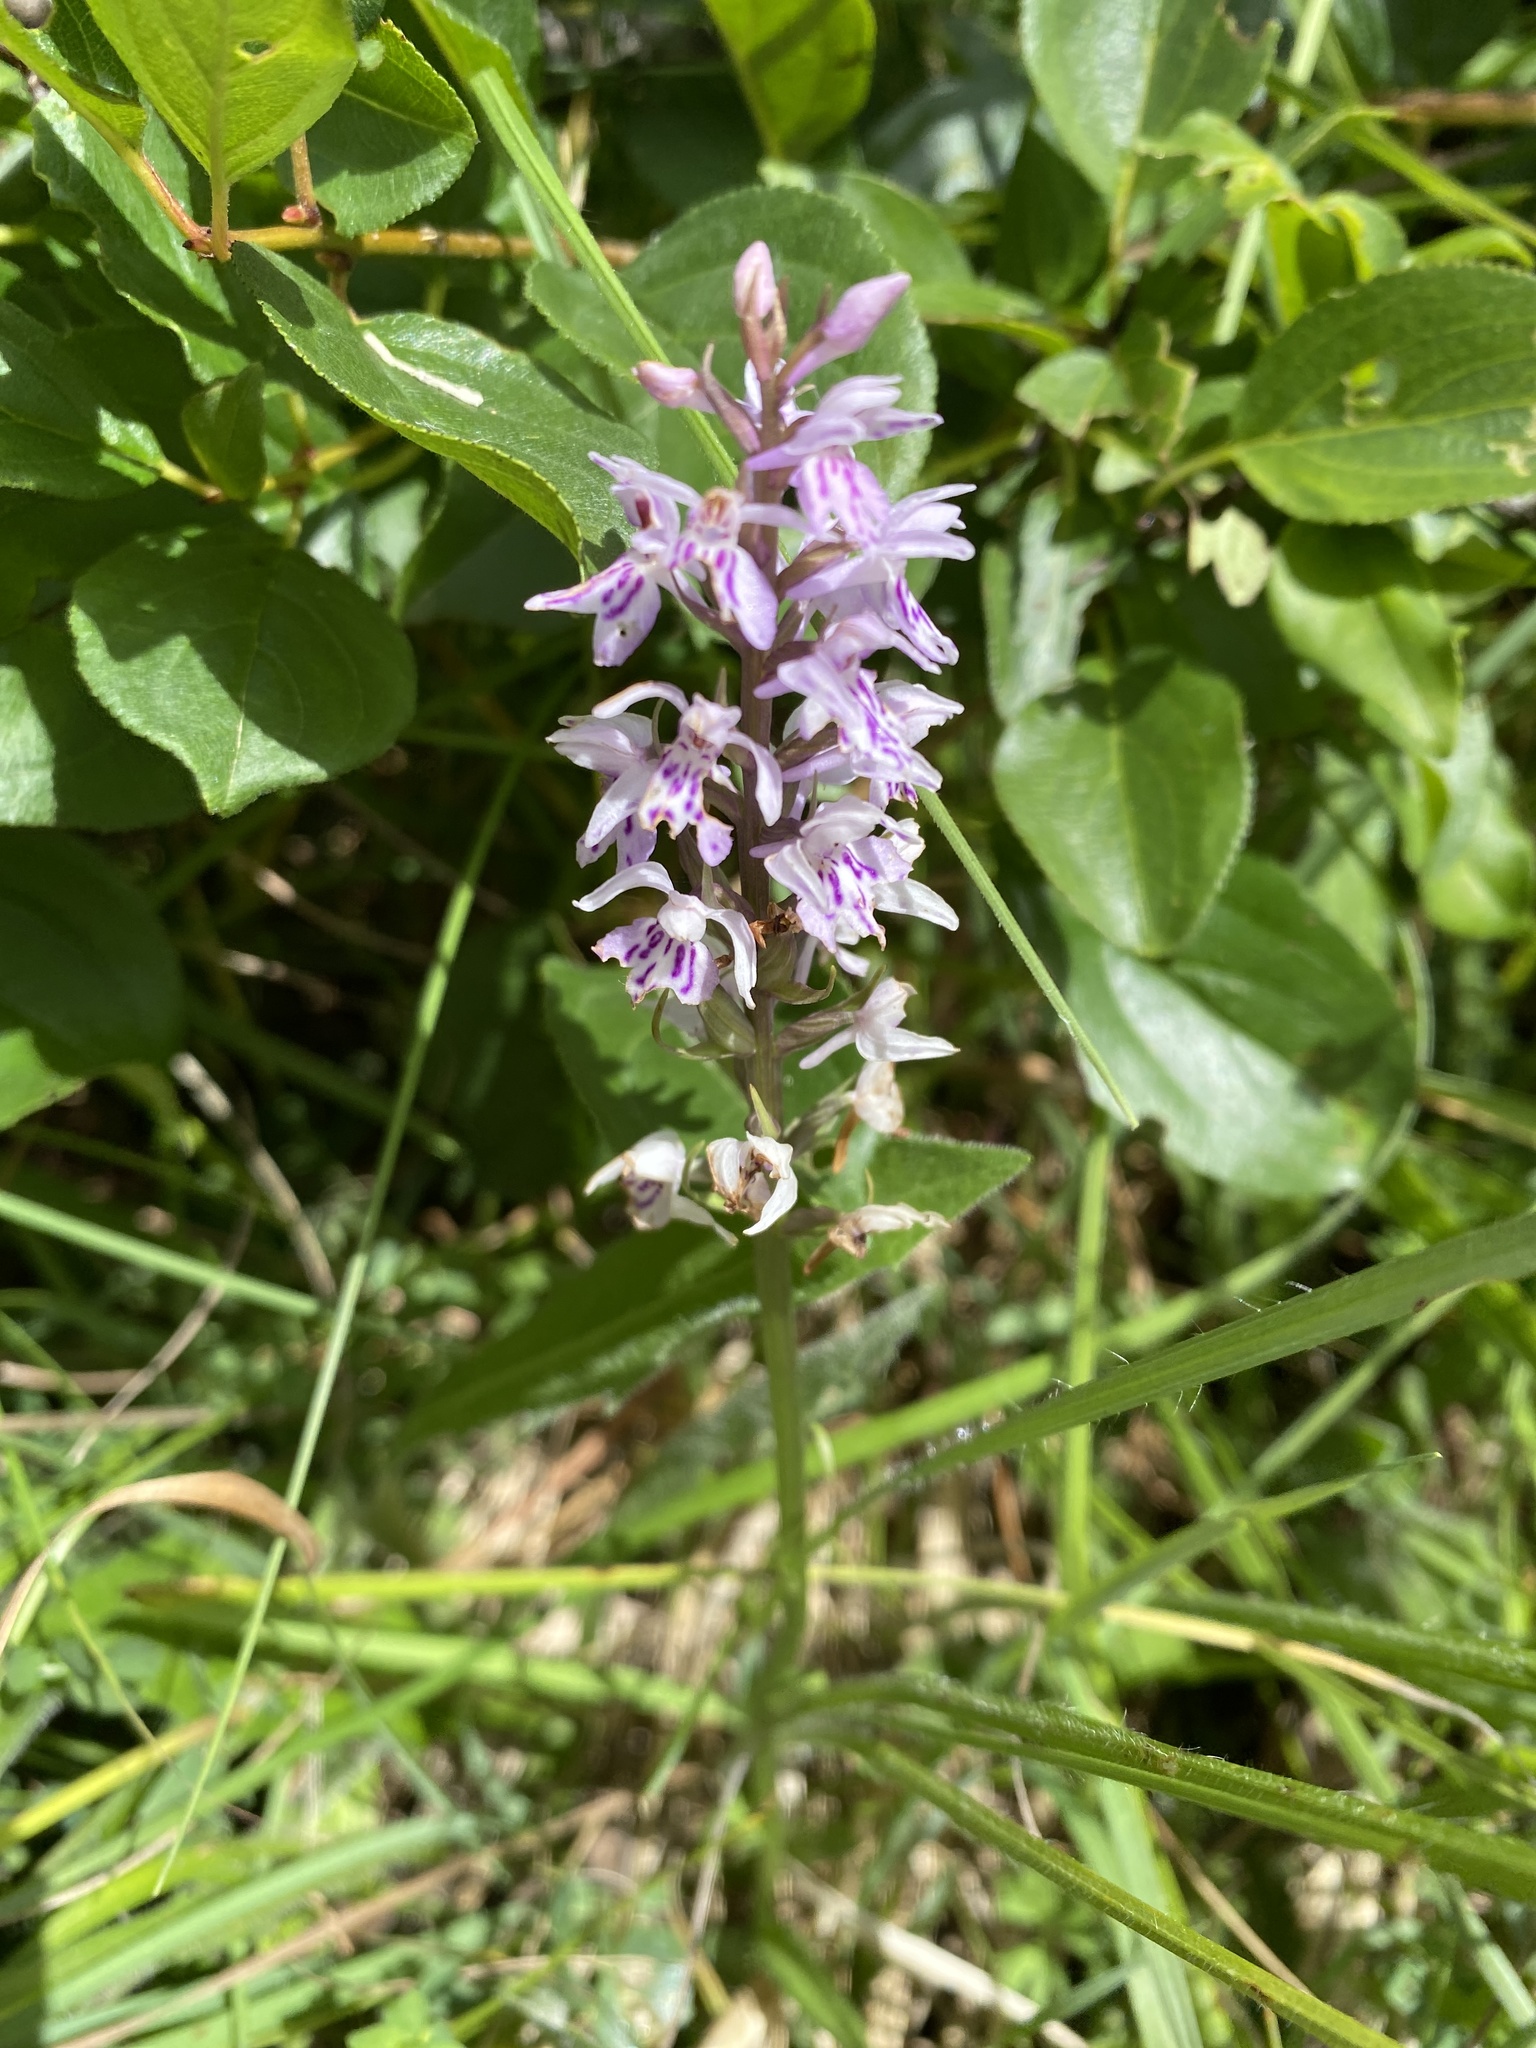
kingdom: Plantae
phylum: Tracheophyta
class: Liliopsida
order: Asparagales
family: Orchidaceae
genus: Dactylorhiza
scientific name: Dactylorhiza maculata
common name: Heath spotted-orchid
